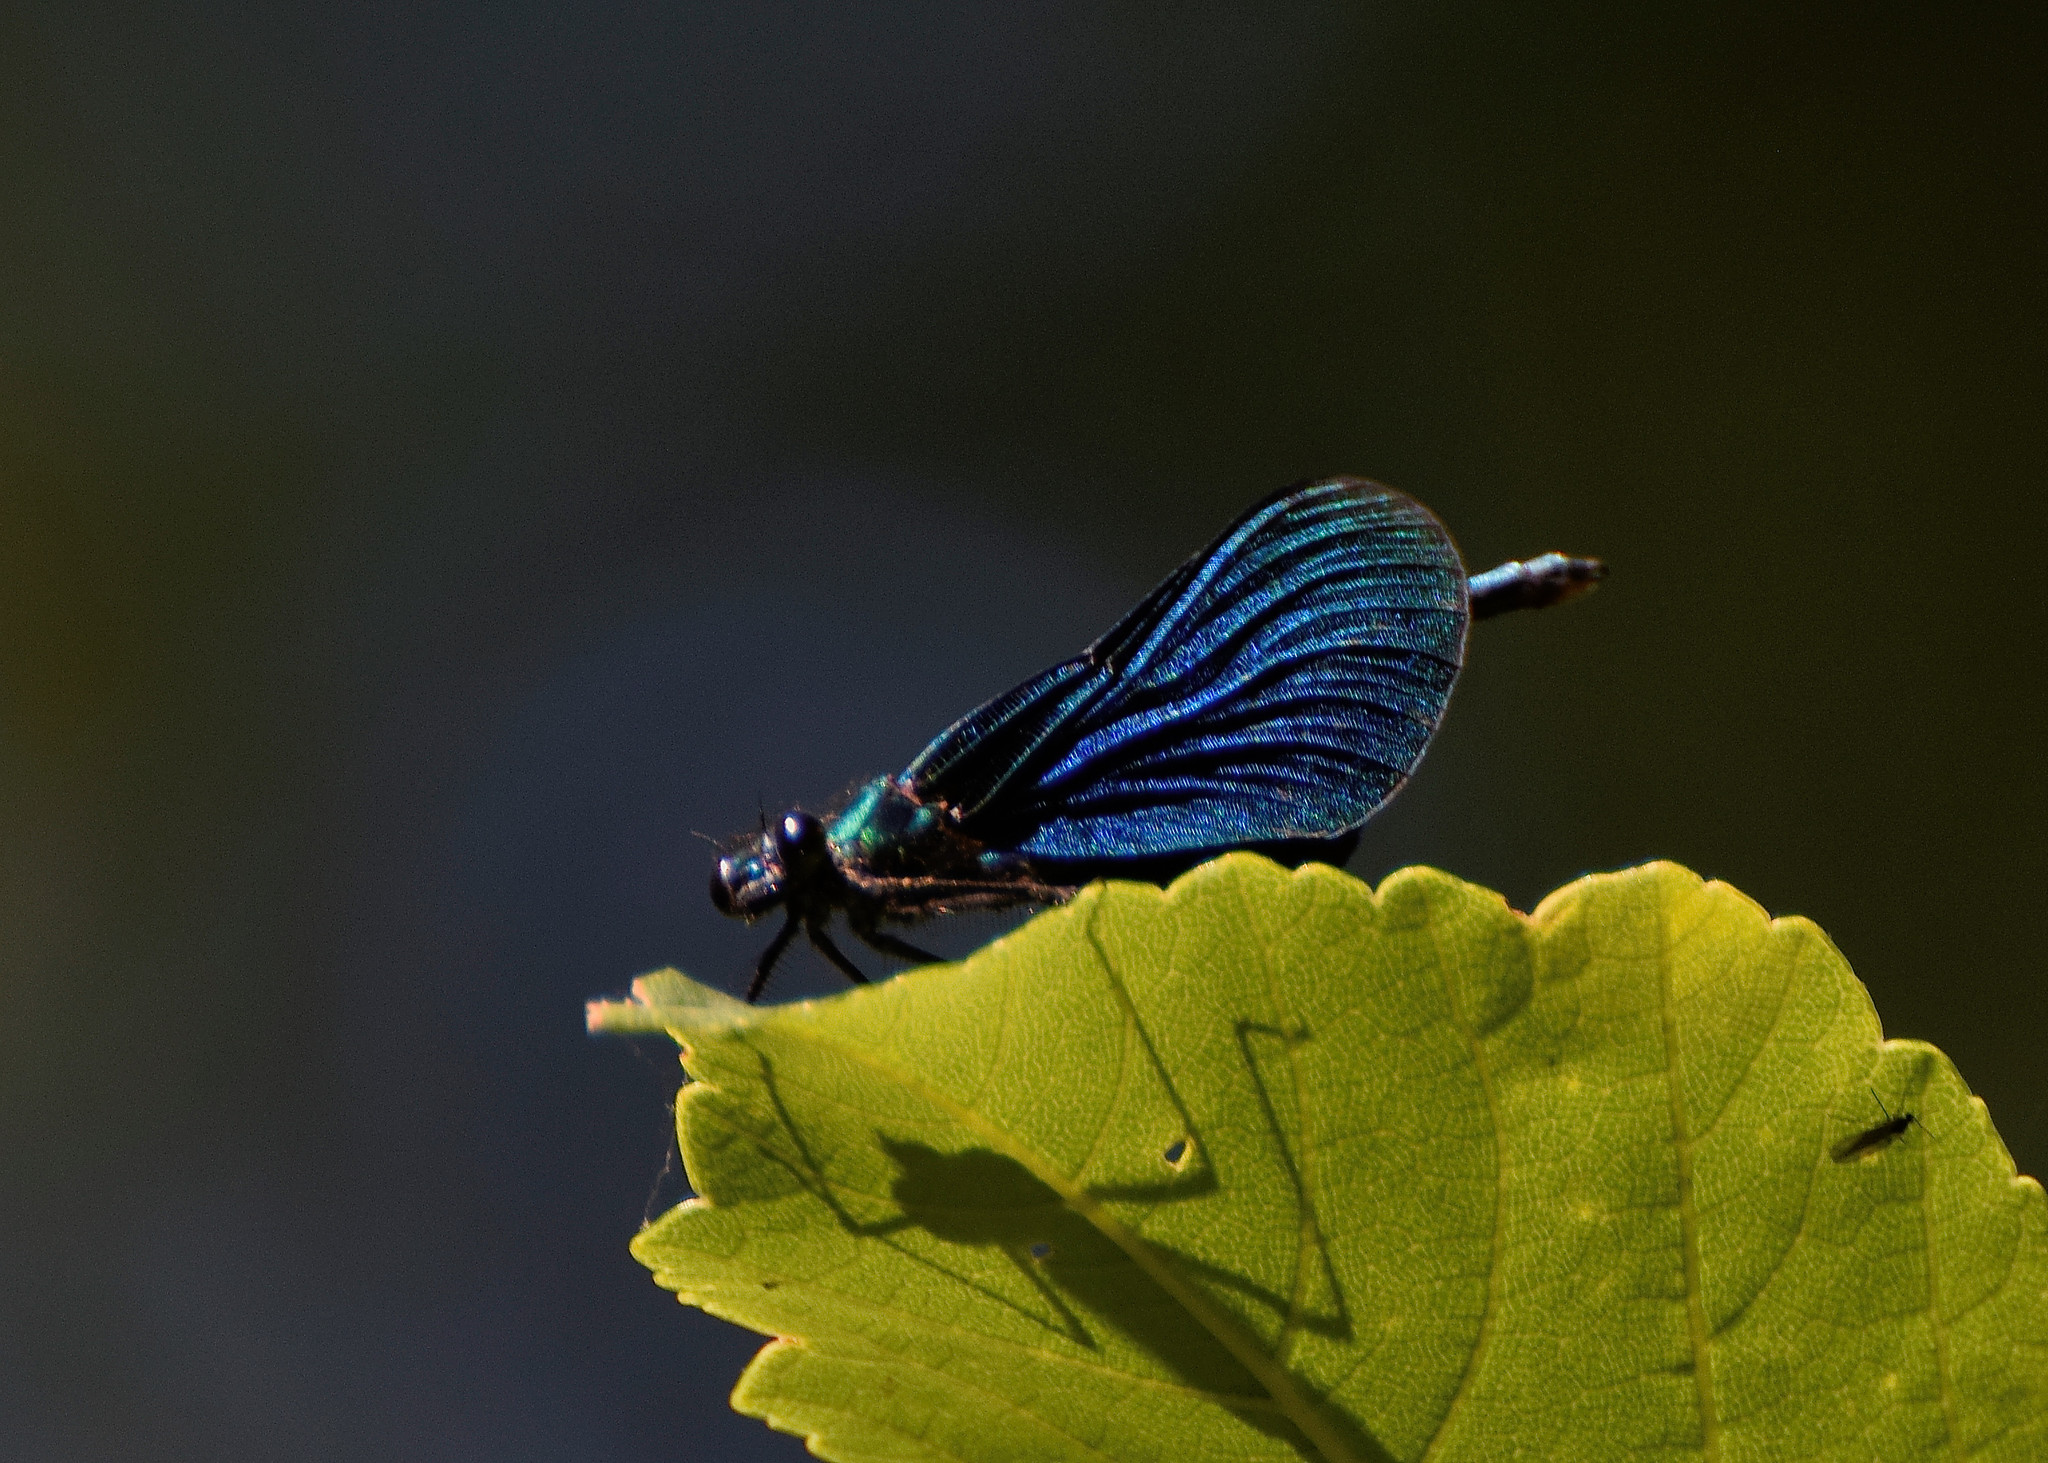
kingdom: Animalia
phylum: Arthropoda
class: Insecta
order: Odonata
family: Calopterygidae
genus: Calopteryx
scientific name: Calopteryx virgo
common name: Beautiful demoiselle
